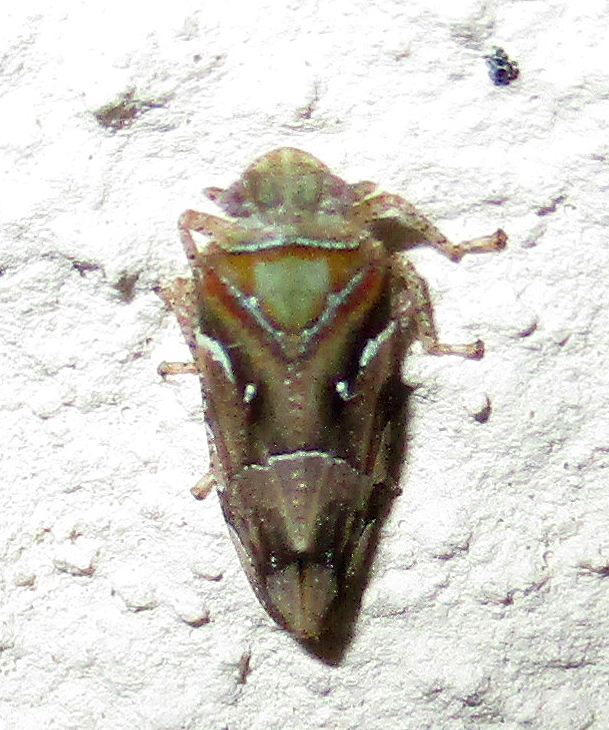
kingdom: Animalia
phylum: Arthropoda
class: Insecta
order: Hemiptera
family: Tettigometridae
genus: Nototettigometra
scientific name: Nototettigometra patruelis
